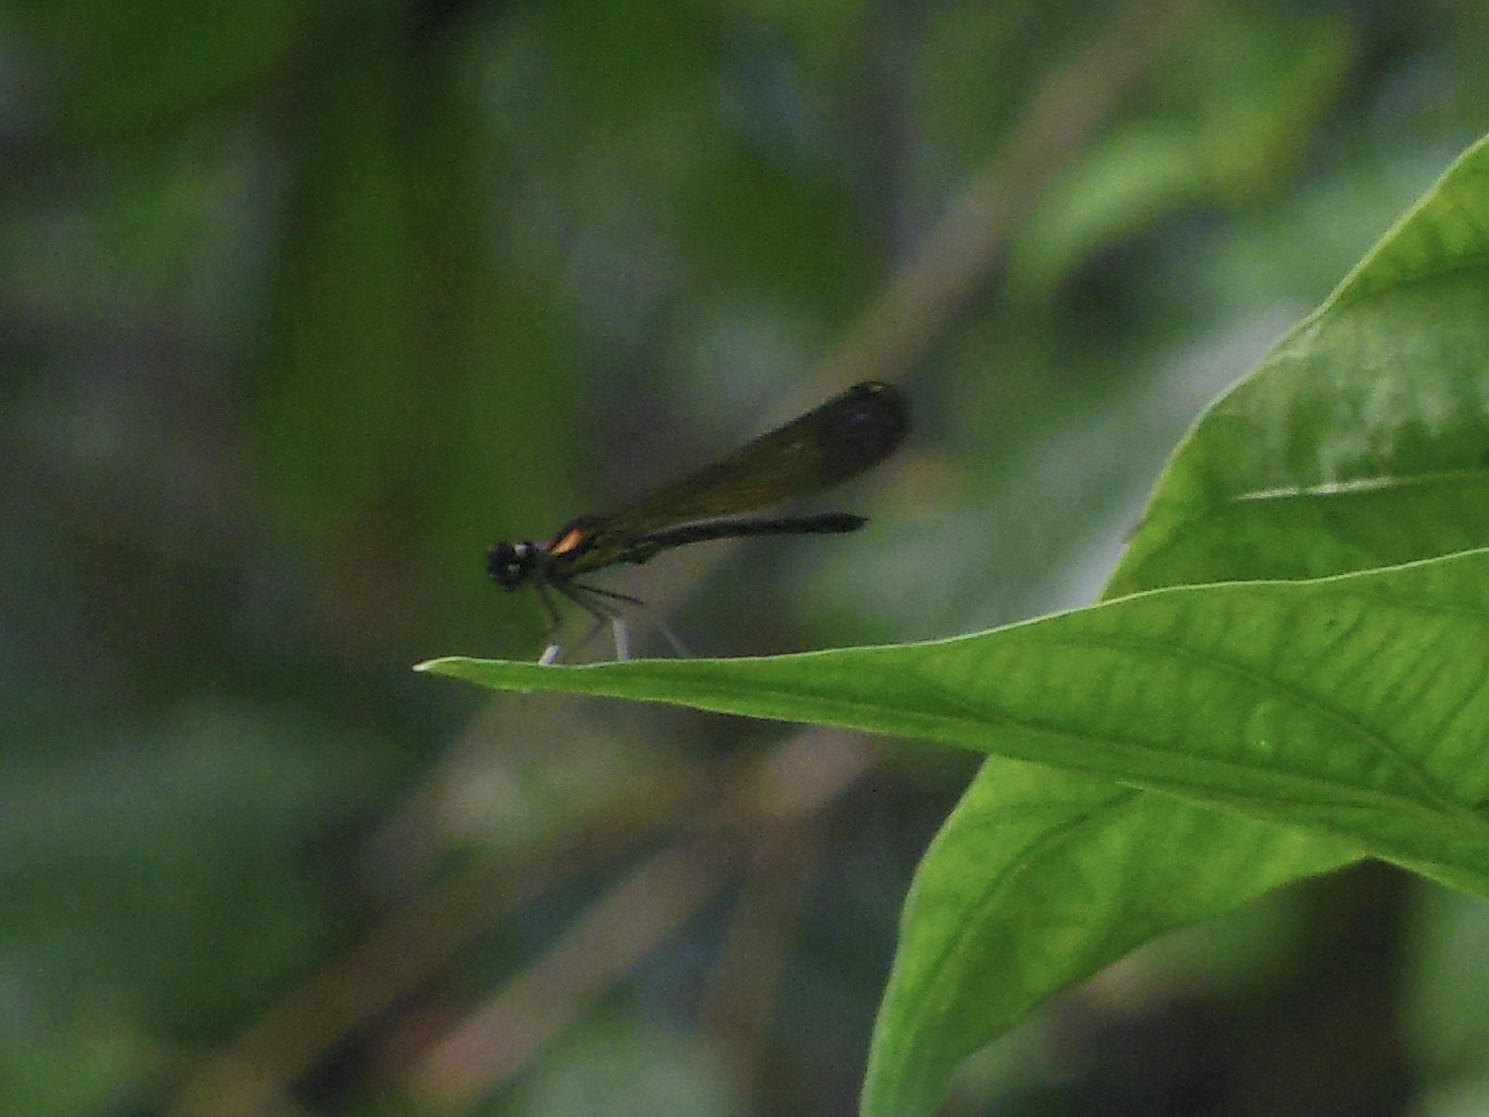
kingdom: Animalia
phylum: Arthropoda
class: Insecta
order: Odonata
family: Chlorocyphidae
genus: Heliocypha
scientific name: Heliocypha bisignata
